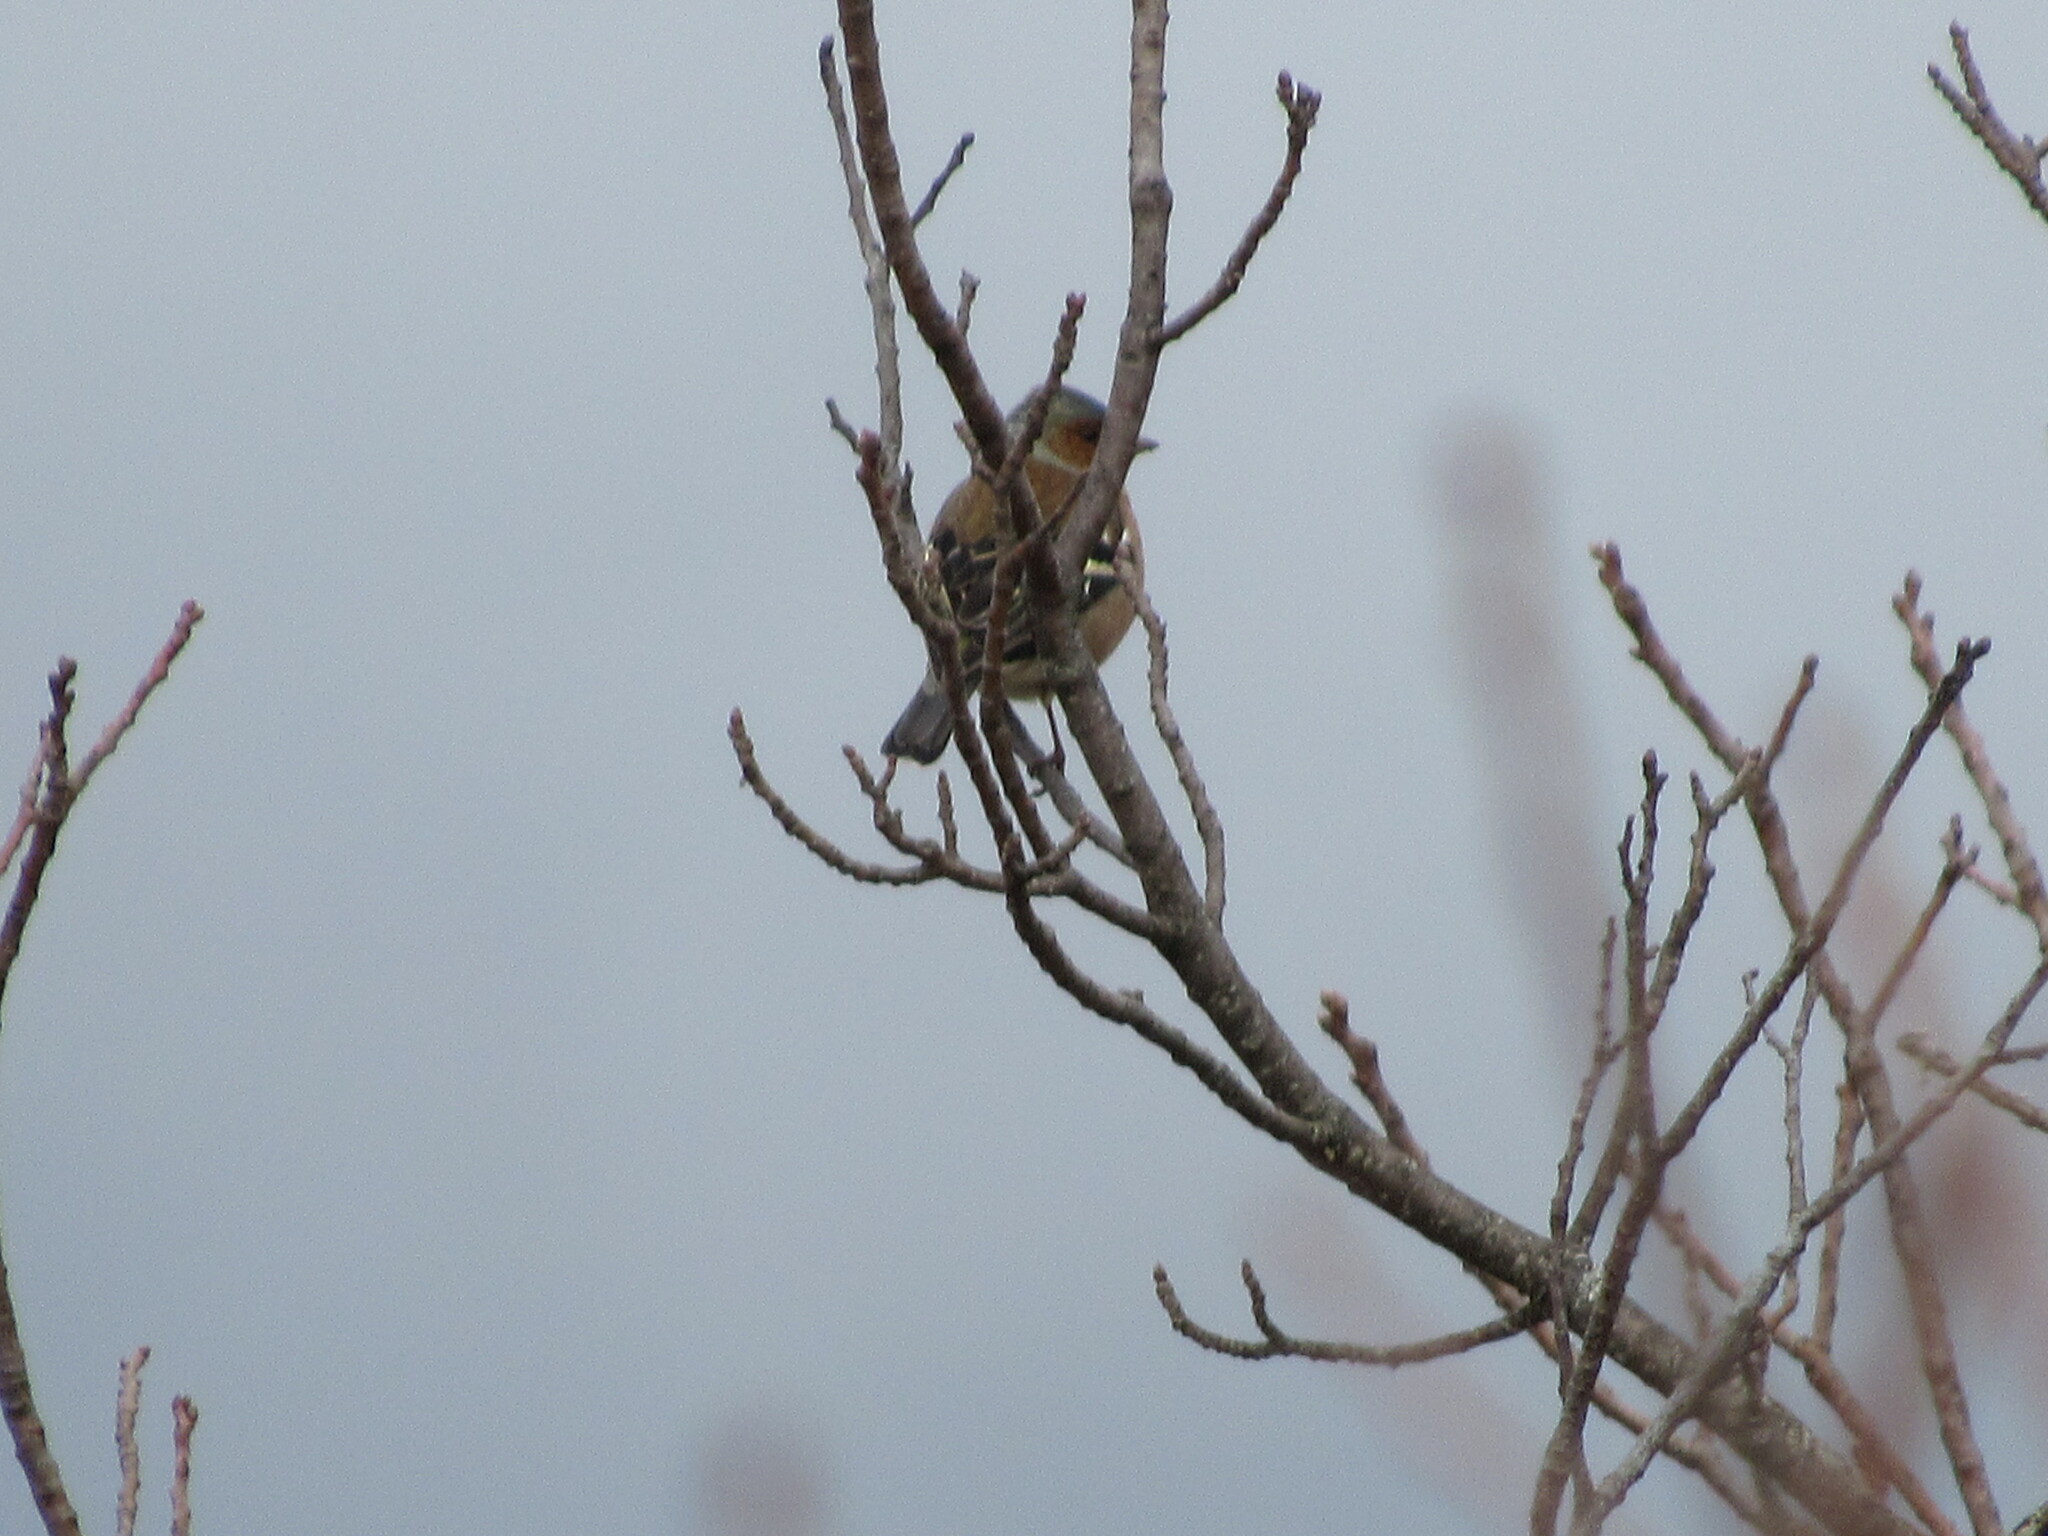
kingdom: Animalia
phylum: Chordata
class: Aves
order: Passeriformes
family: Fringillidae
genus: Fringilla
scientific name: Fringilla coelebs
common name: Common chaffinch
